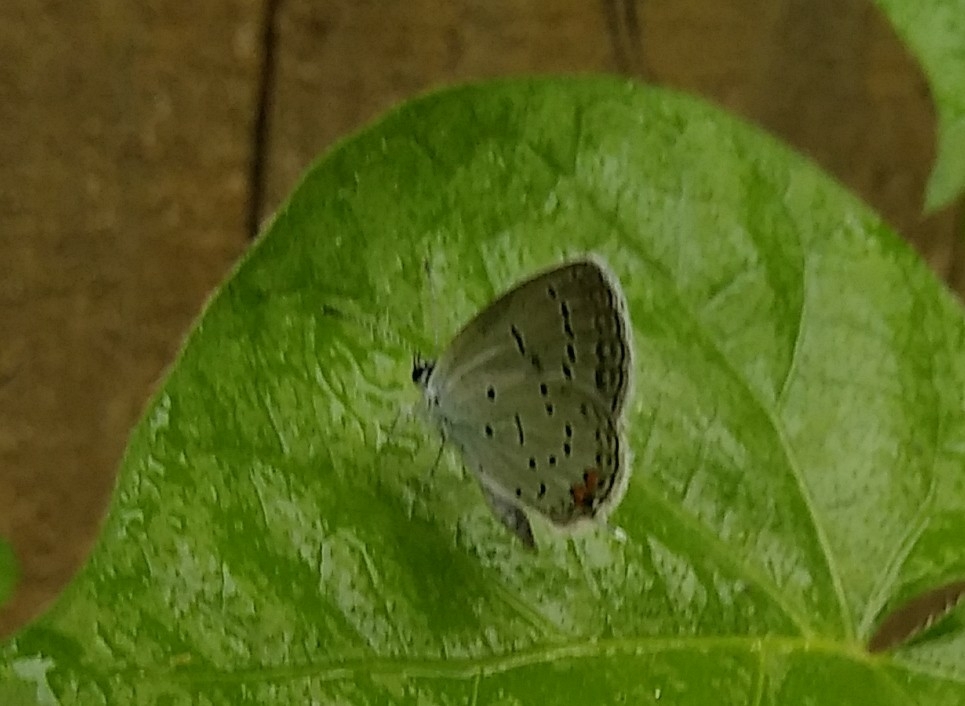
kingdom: Animalia
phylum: Arthropoda
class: Insecta
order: Lepidoptera
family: Lycaenidae
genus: Elkalyce
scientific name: Elkalyce comyntas
